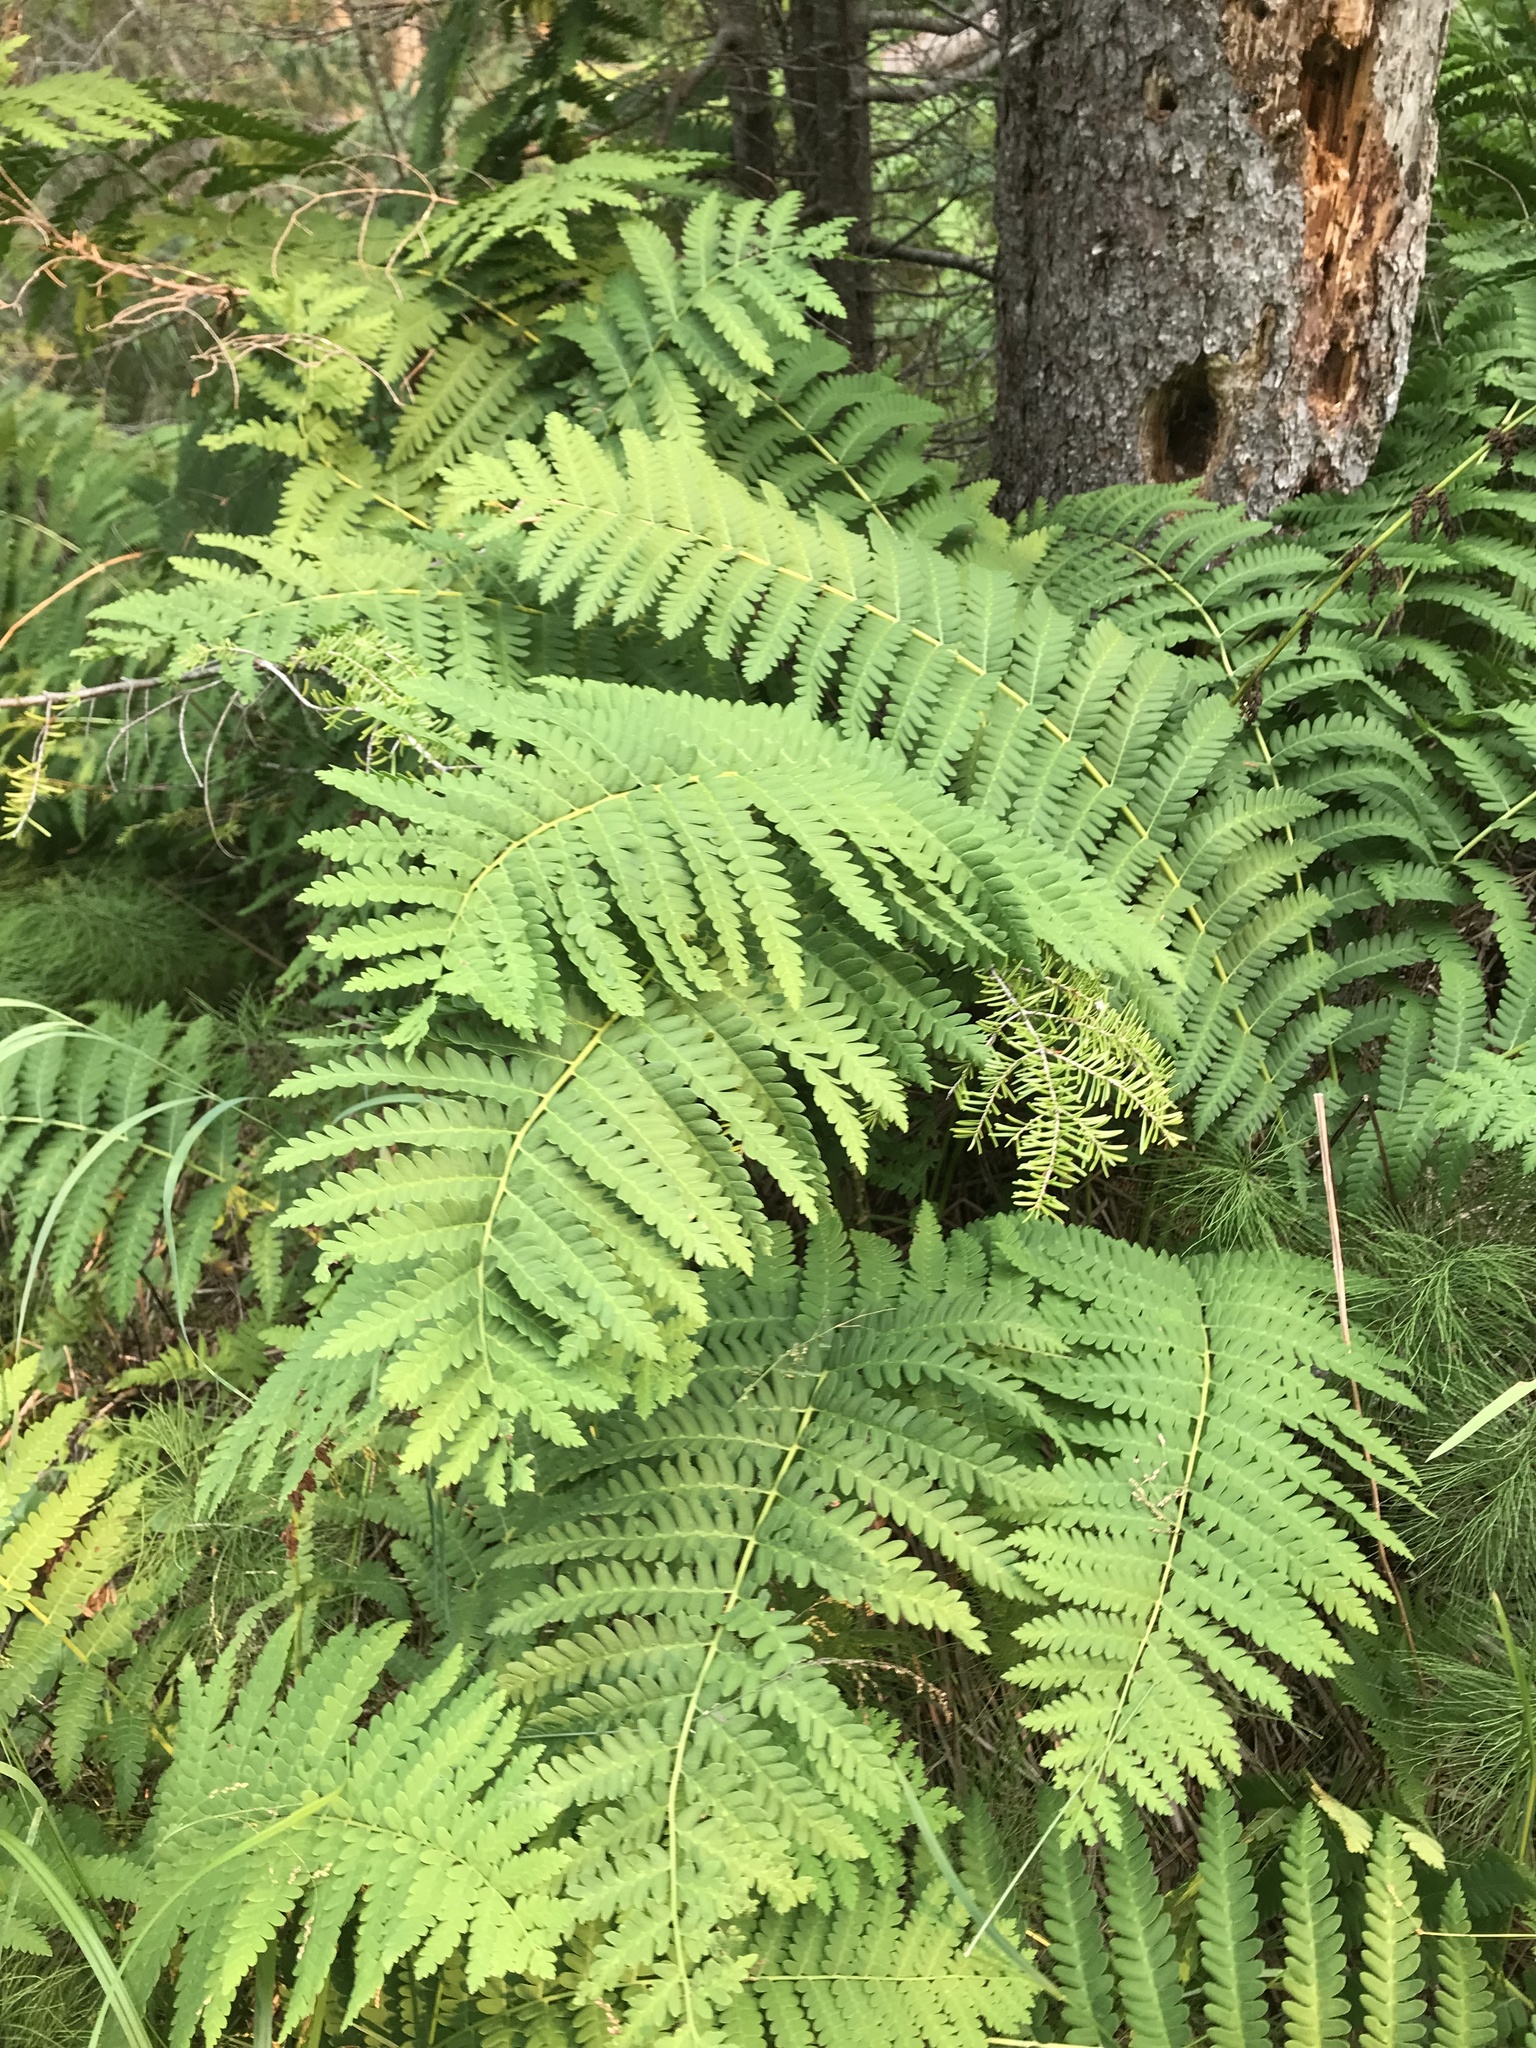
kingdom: Plantae
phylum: Tracheophyta
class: Polypodiopsida
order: Osmundales
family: Osmundaceae
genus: Claytosmunda
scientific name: Claytosmunda claytoniana
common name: Clayton's fern
